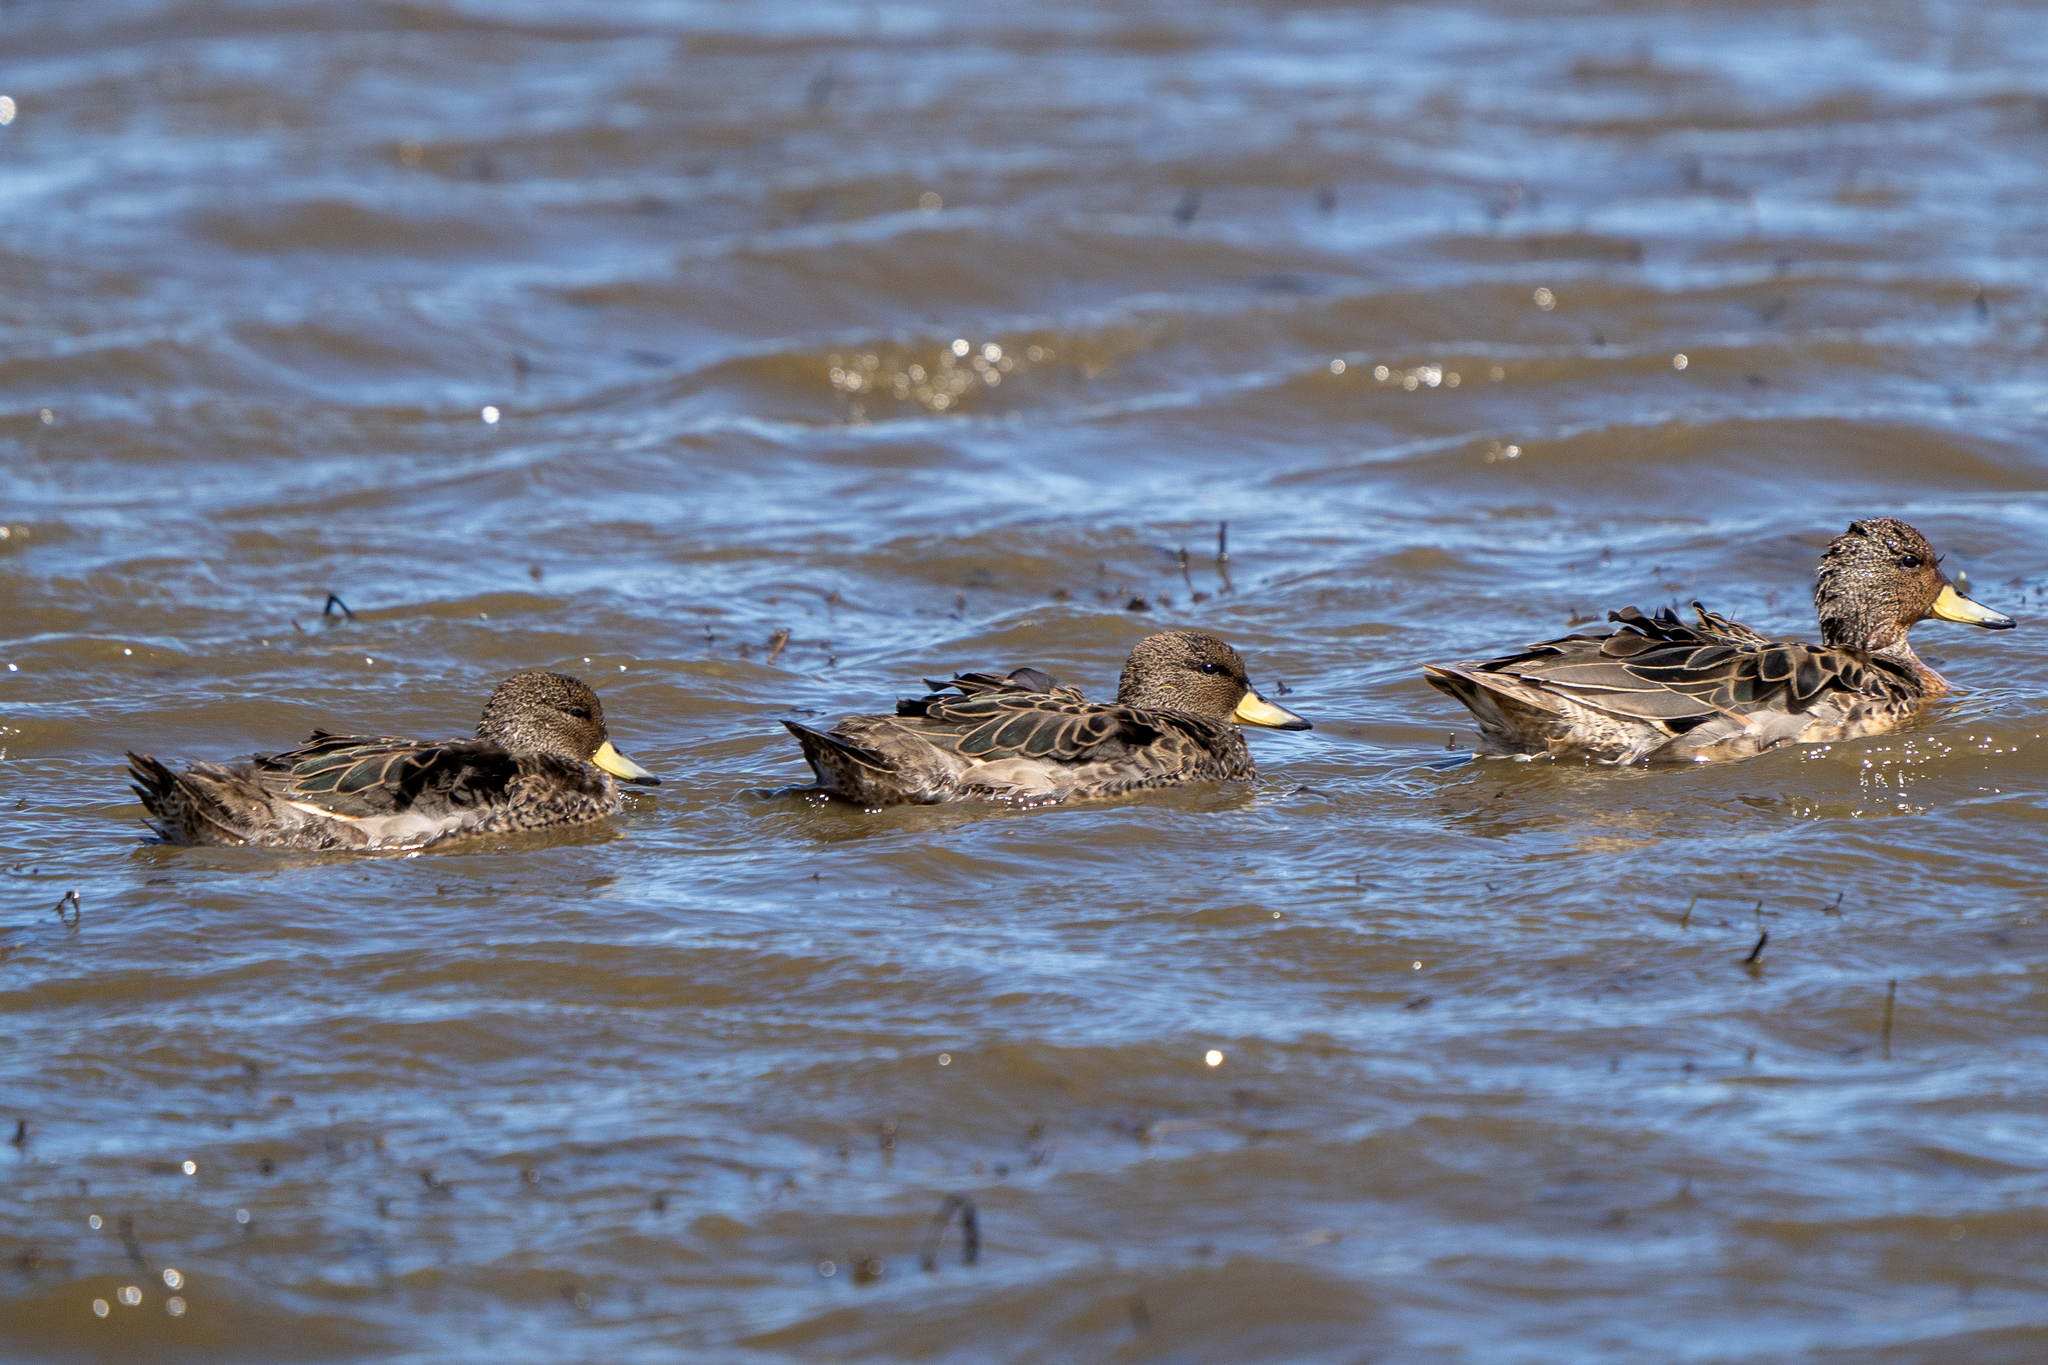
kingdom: Animalia
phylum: Chordata
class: Aves
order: Anseriformes
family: Anatidae
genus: Anas
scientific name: Anas flavirostris
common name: Yellow-billed teal
